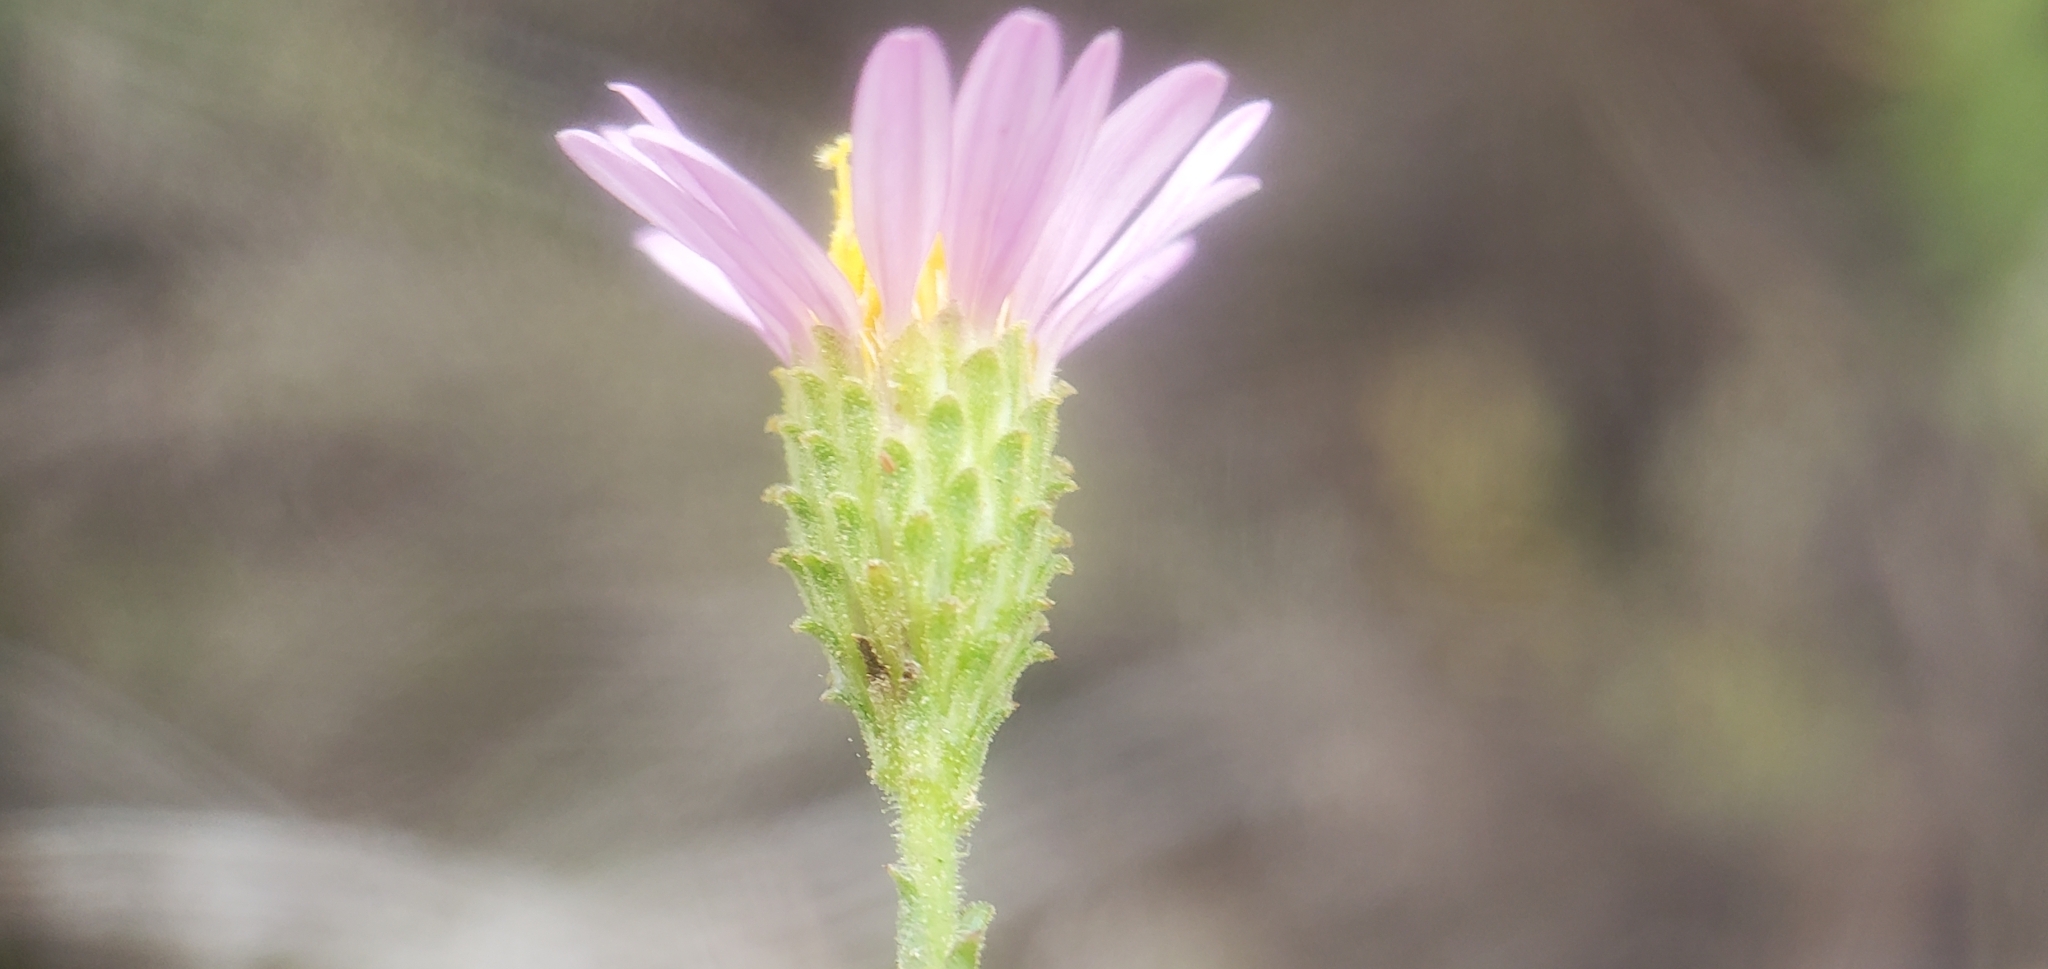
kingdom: Plantae
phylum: Tracheophyta
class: Magnoliopsida
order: Asterales
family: Asteraceae
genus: Corethrogyne
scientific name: Corethrogyne filaginifolia
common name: Sand-aster
